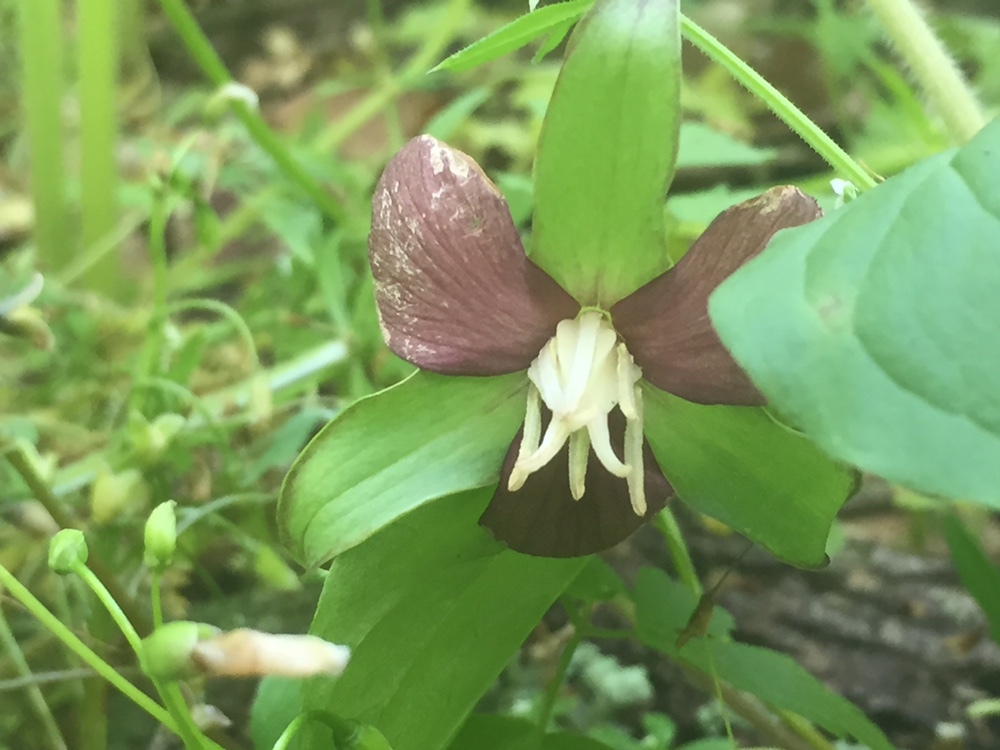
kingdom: Plantae
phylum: Tracheophyta
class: Liliopsida
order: Liliales
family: Melanthiaceae
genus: Trillium
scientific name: Trillium flexipes
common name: Drooping trillium
